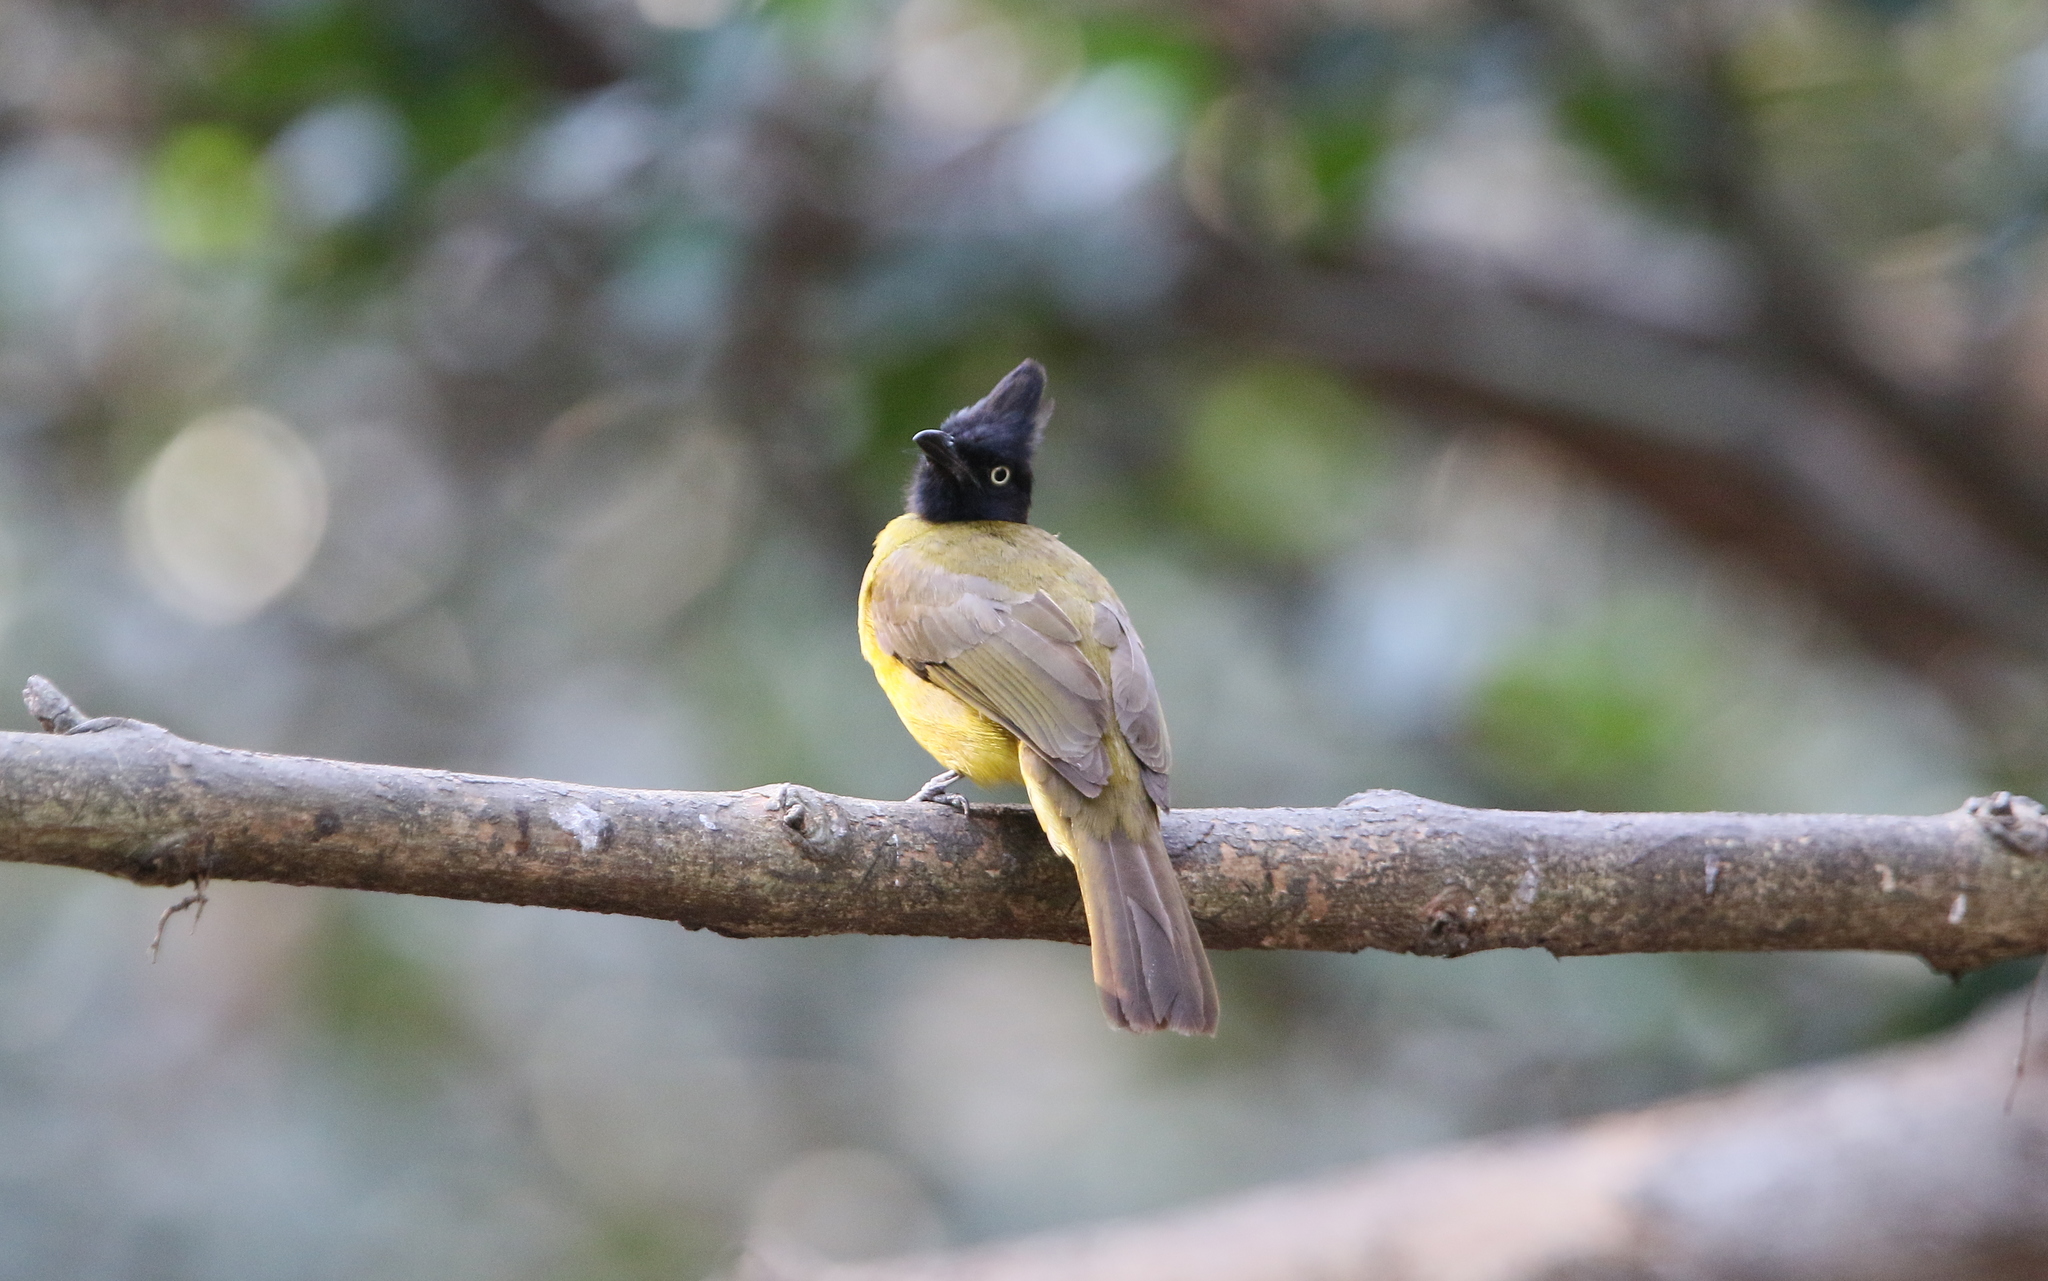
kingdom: Animalia
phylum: Chordata
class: Aves
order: Passeriformes
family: Pycnonotidae
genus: Pycnonotus
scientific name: Pycnonotus flaviventris
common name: Black-crested bulbul
